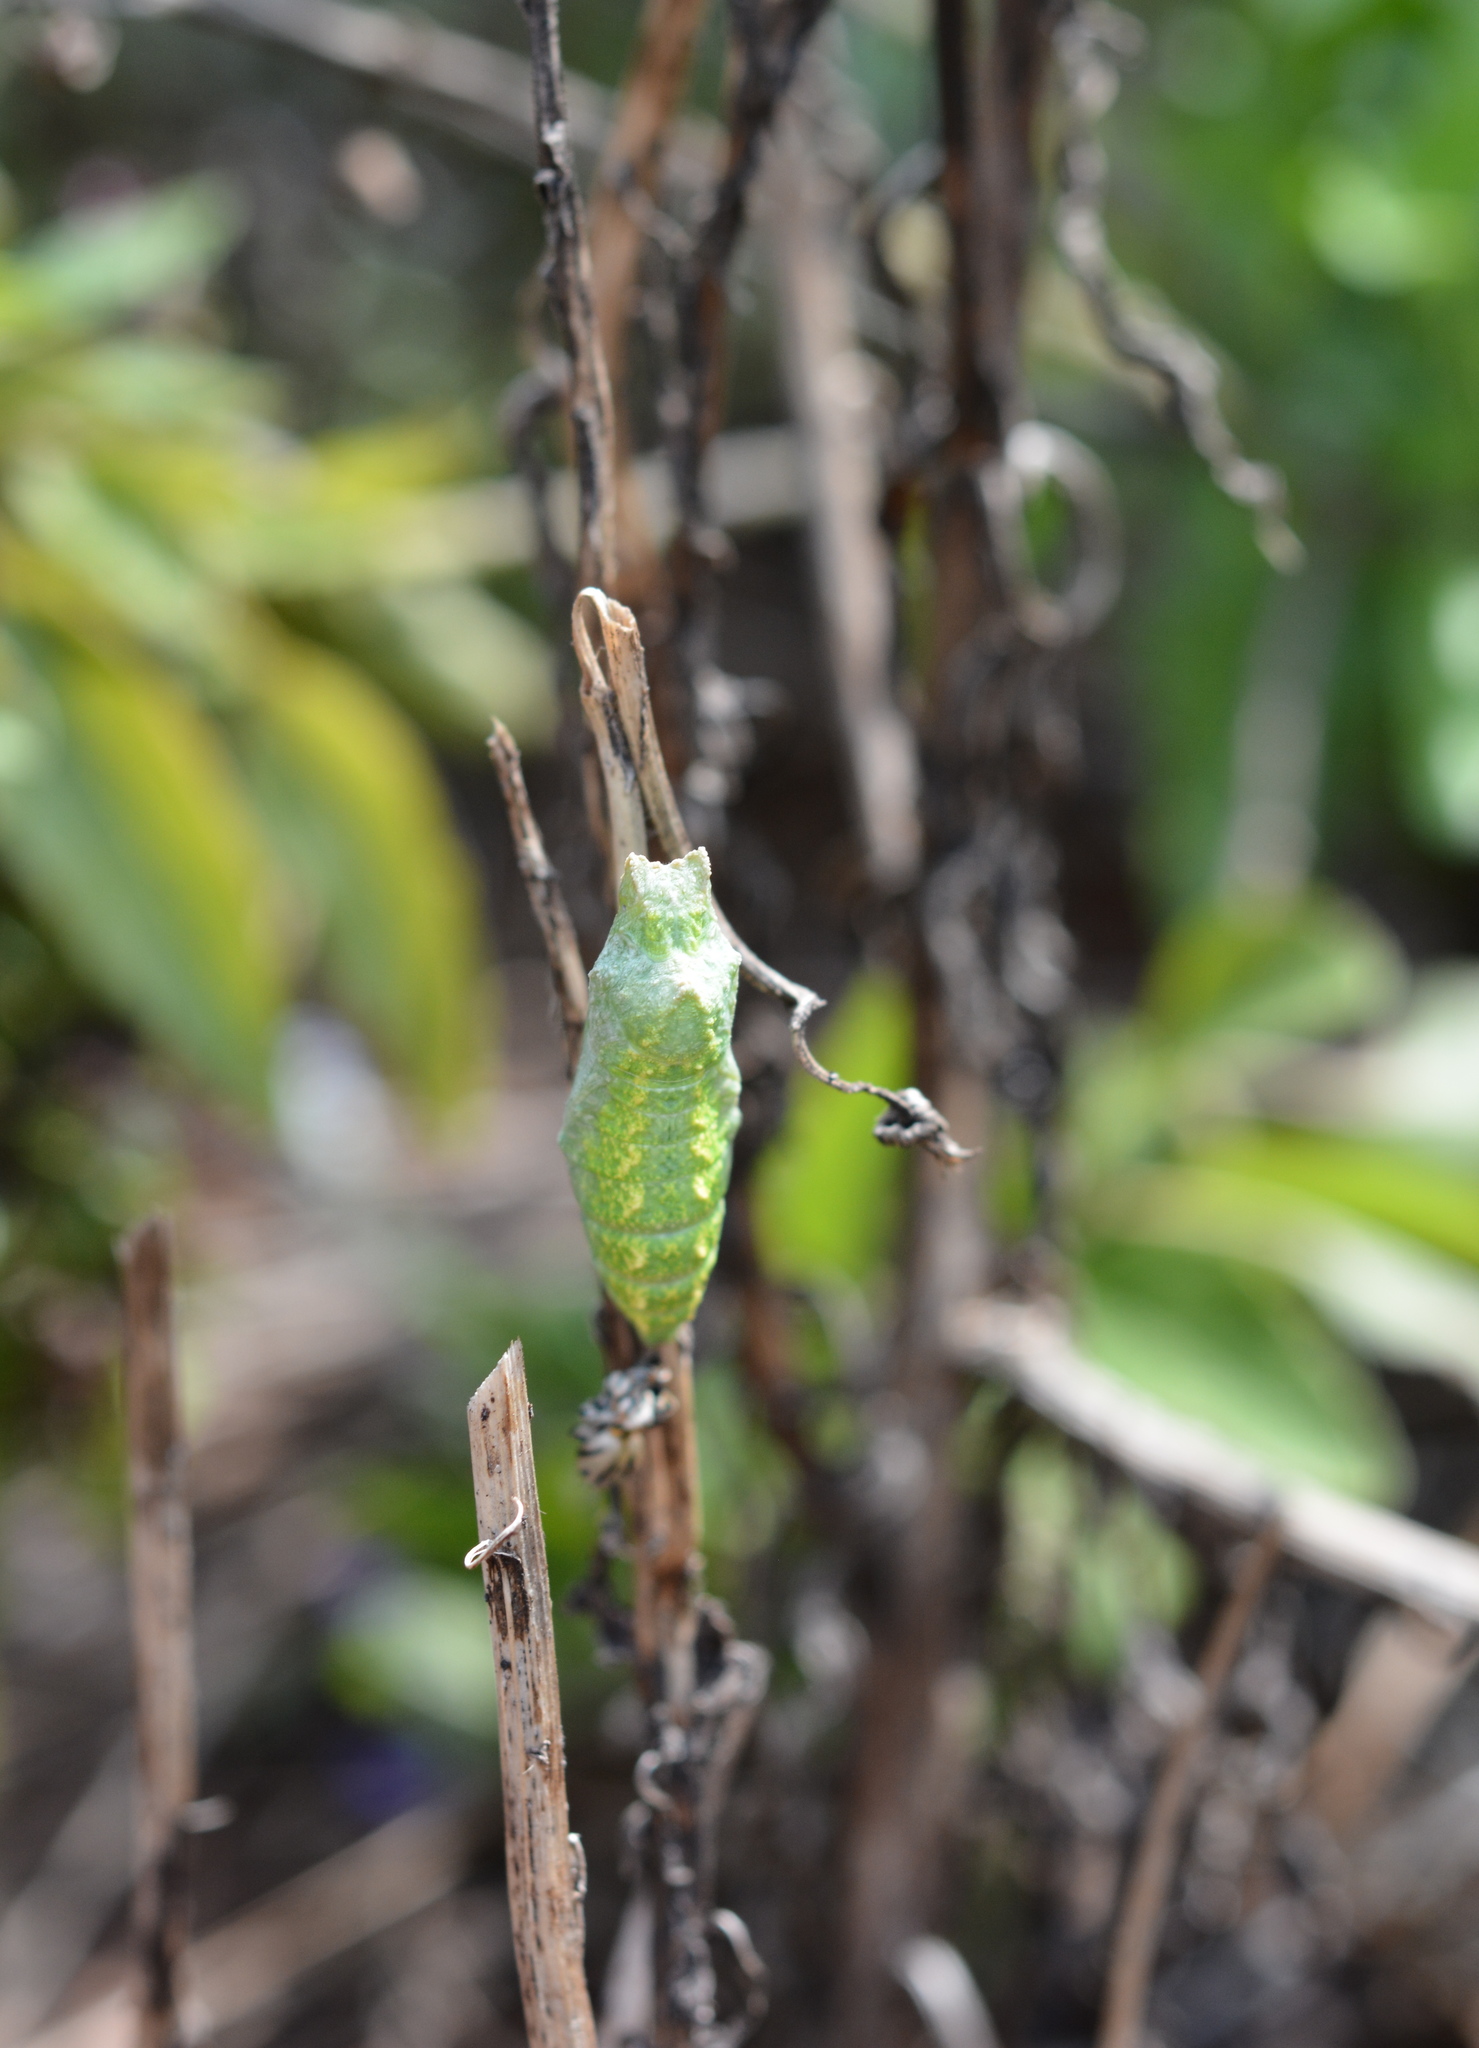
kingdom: Animalia
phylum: Arthropoda
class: Insecta
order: Lepidoptera
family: Papilionidae
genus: Papilio
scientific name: Papilio polyxenes
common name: Black swallowtail
